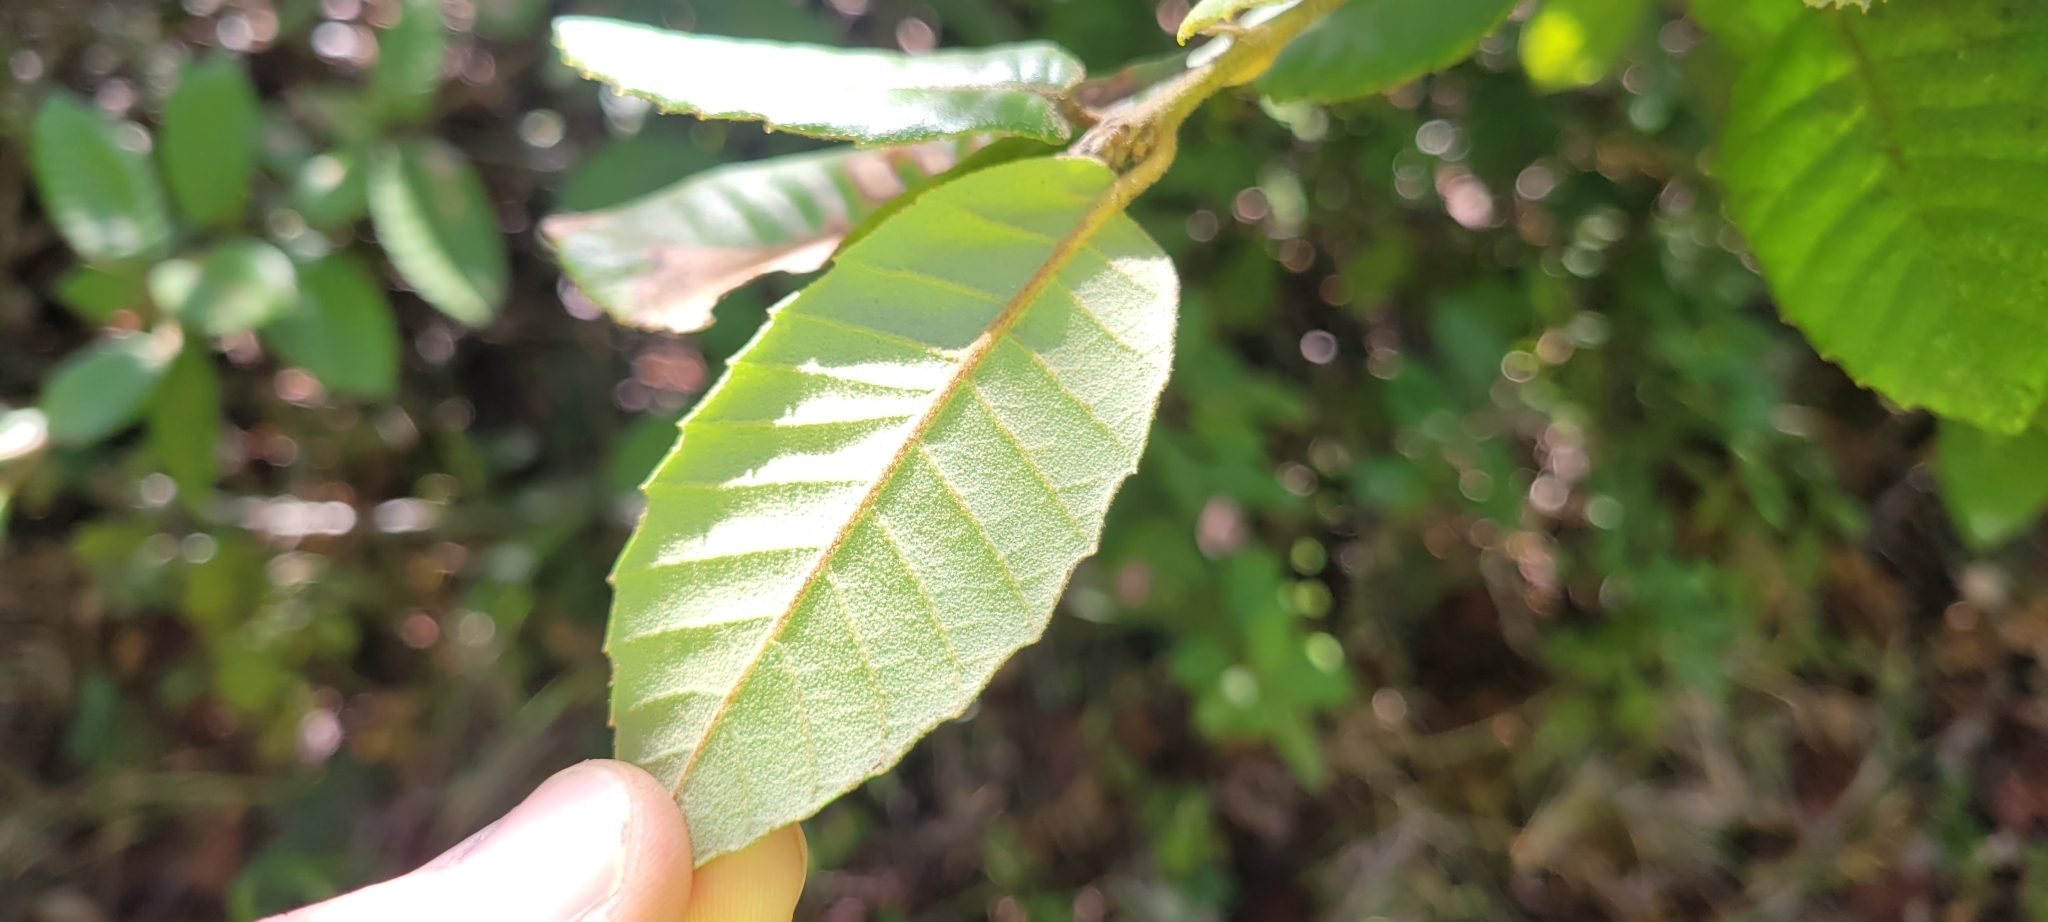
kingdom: Plantae
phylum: Tracheophyta
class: Magnoliopsida
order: Fagales
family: Fagaceae
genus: Notholithocarpus
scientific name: Notholithocarpus densiflorus
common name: Tan bark oak
